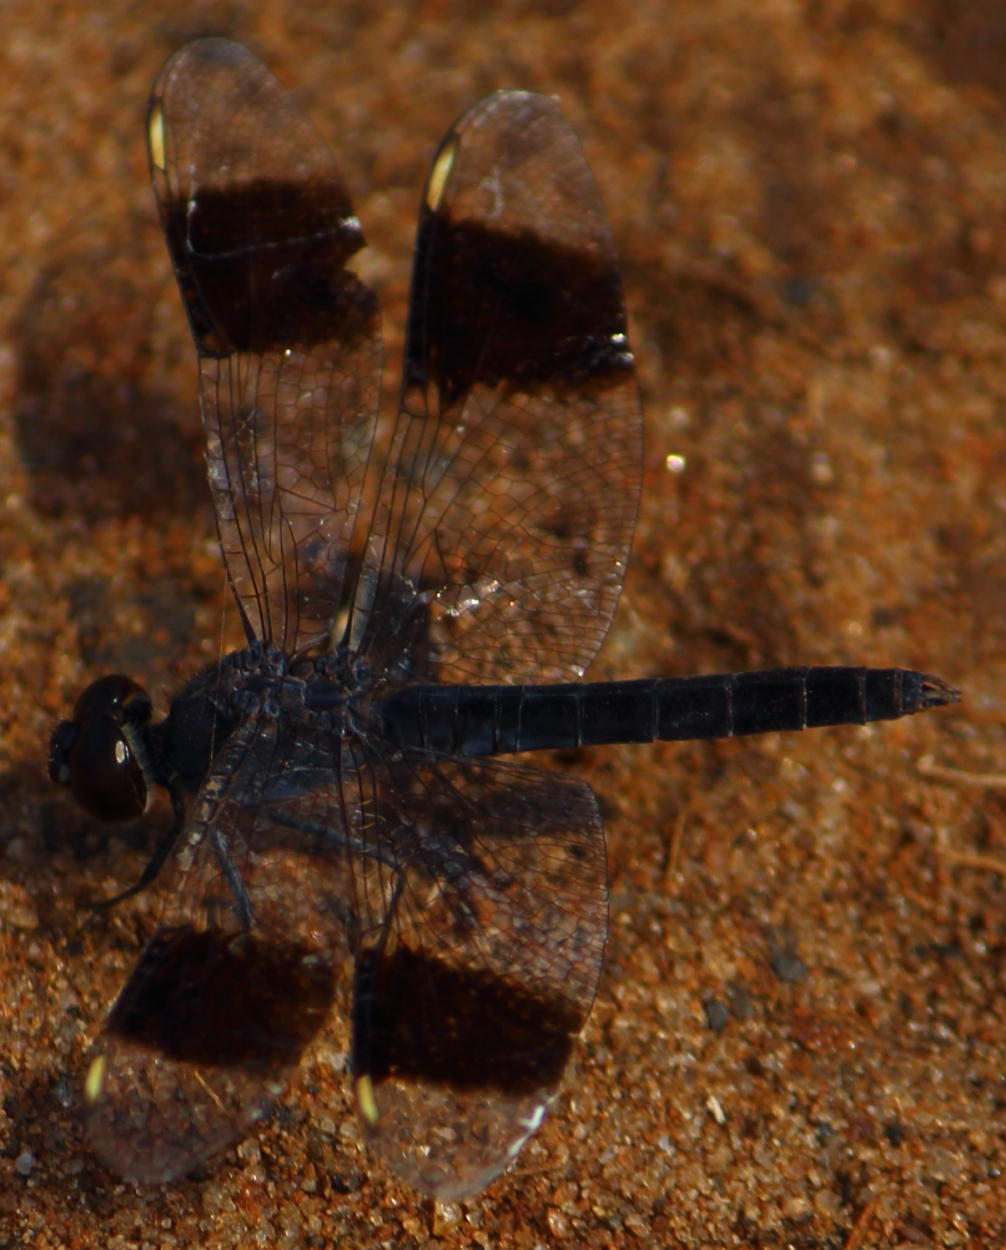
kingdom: Animalia
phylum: Arthropoda
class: Insecta
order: Odonata
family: Libellulidae
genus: Brachythemis
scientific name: Brachythemis leucosticta
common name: Banded groundling
